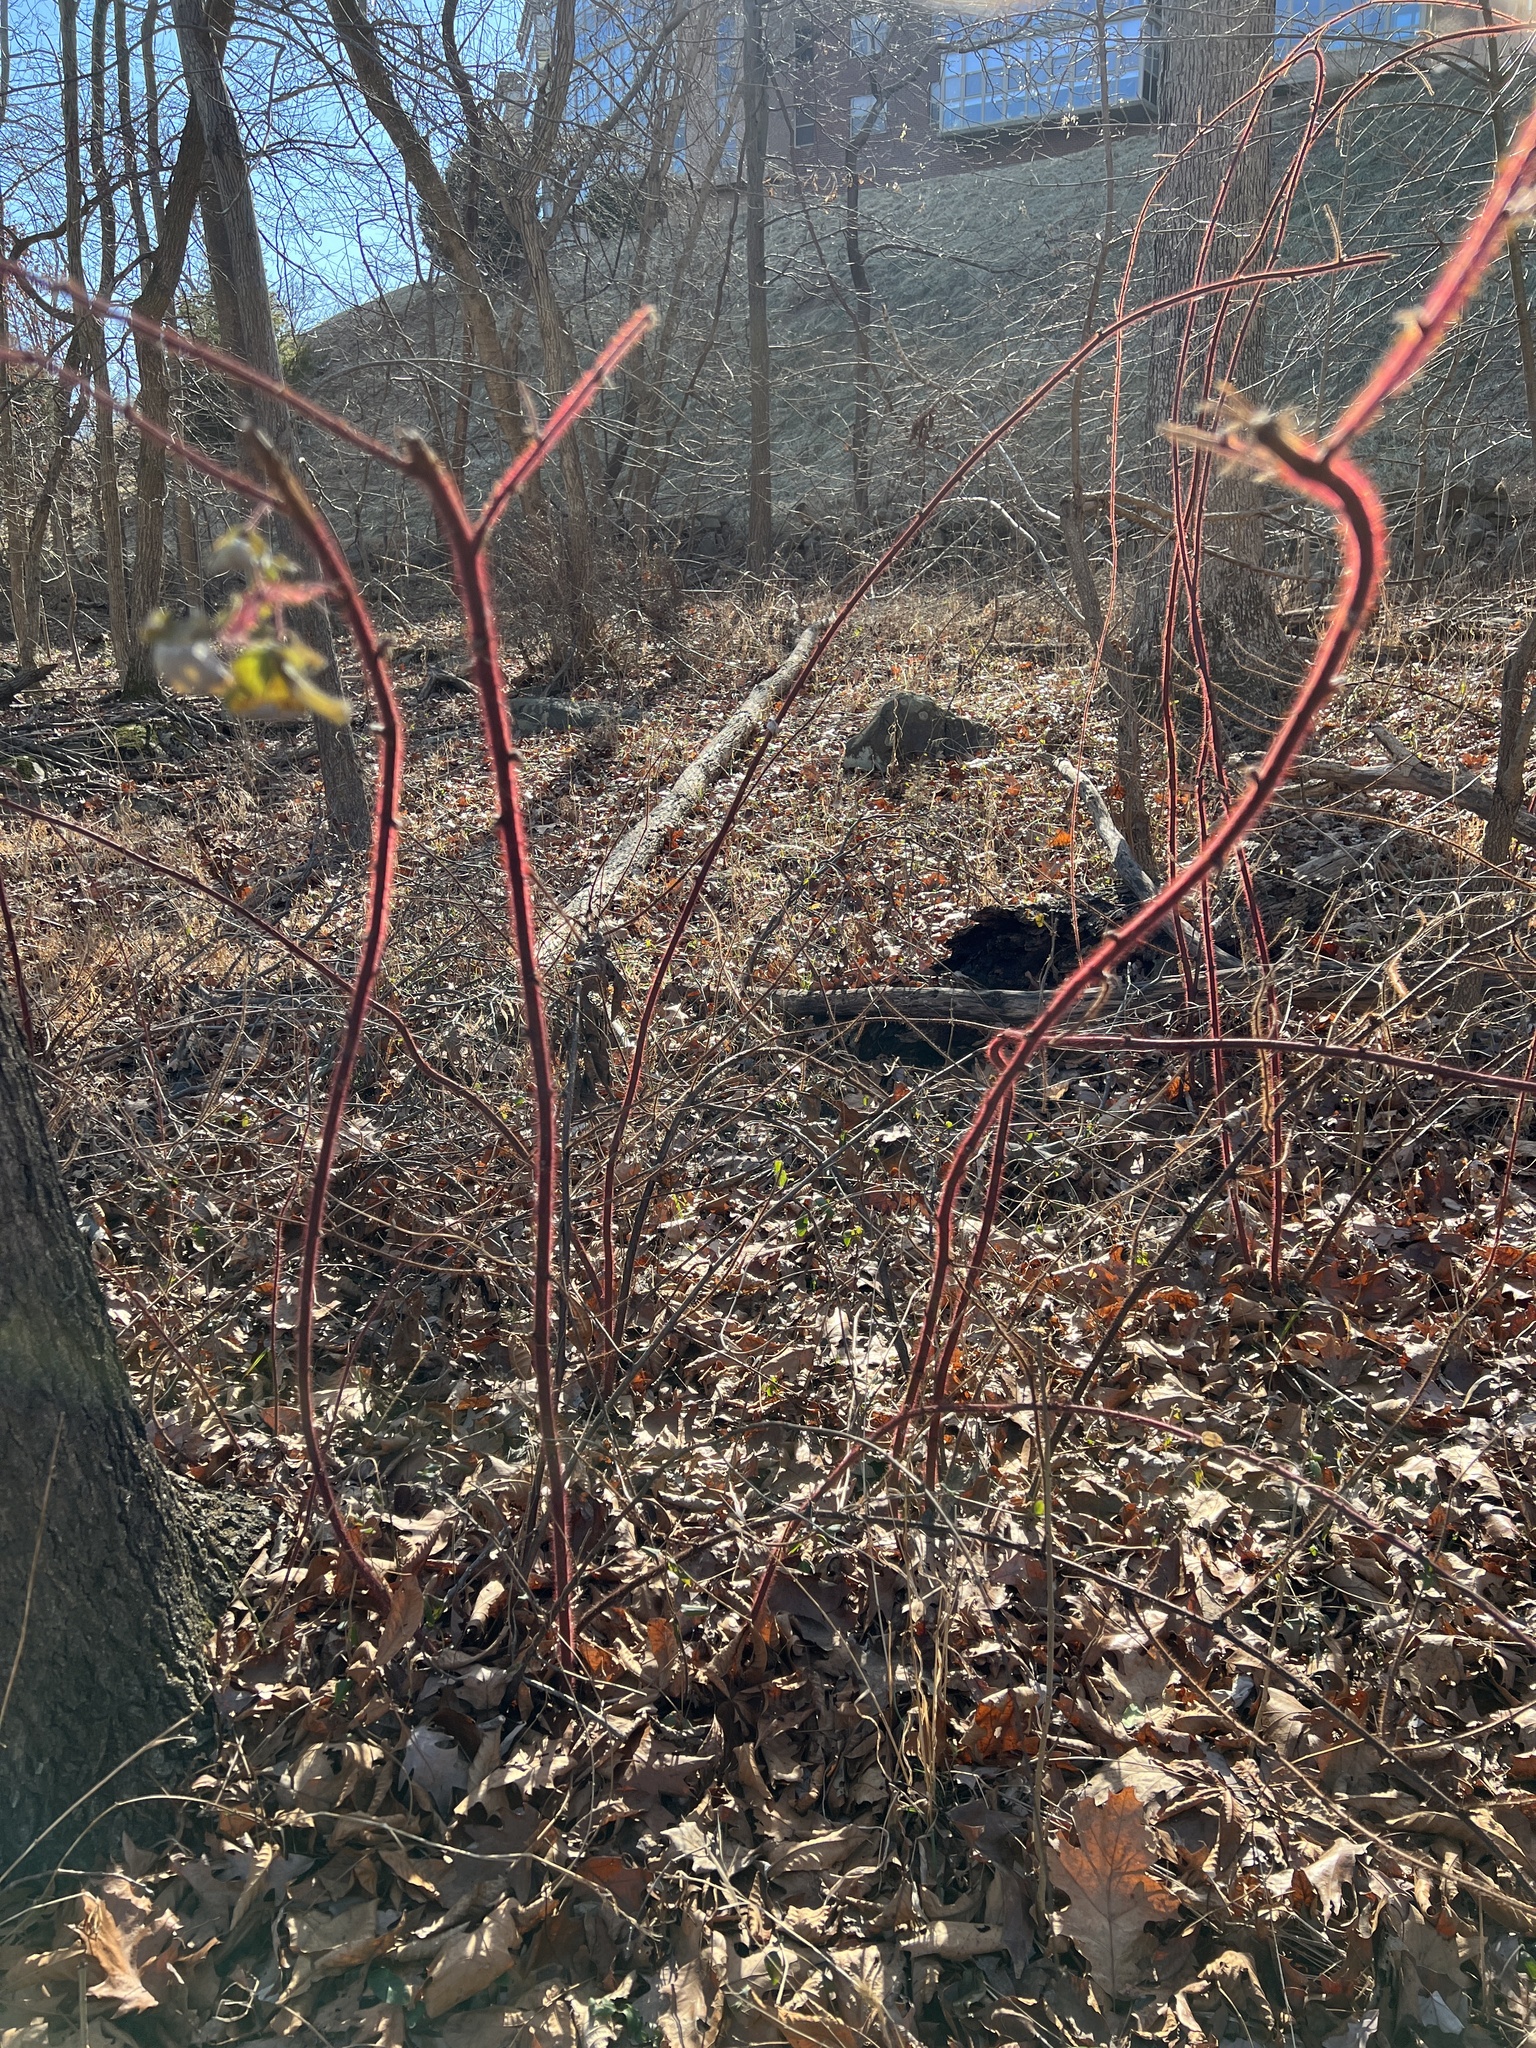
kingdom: Plantae
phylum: Tracheophyta
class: Magnoliopsida
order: Rosales
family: Rosaceae
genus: Rubus
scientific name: Rubus phoenicolasius
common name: Japanese wineberry
